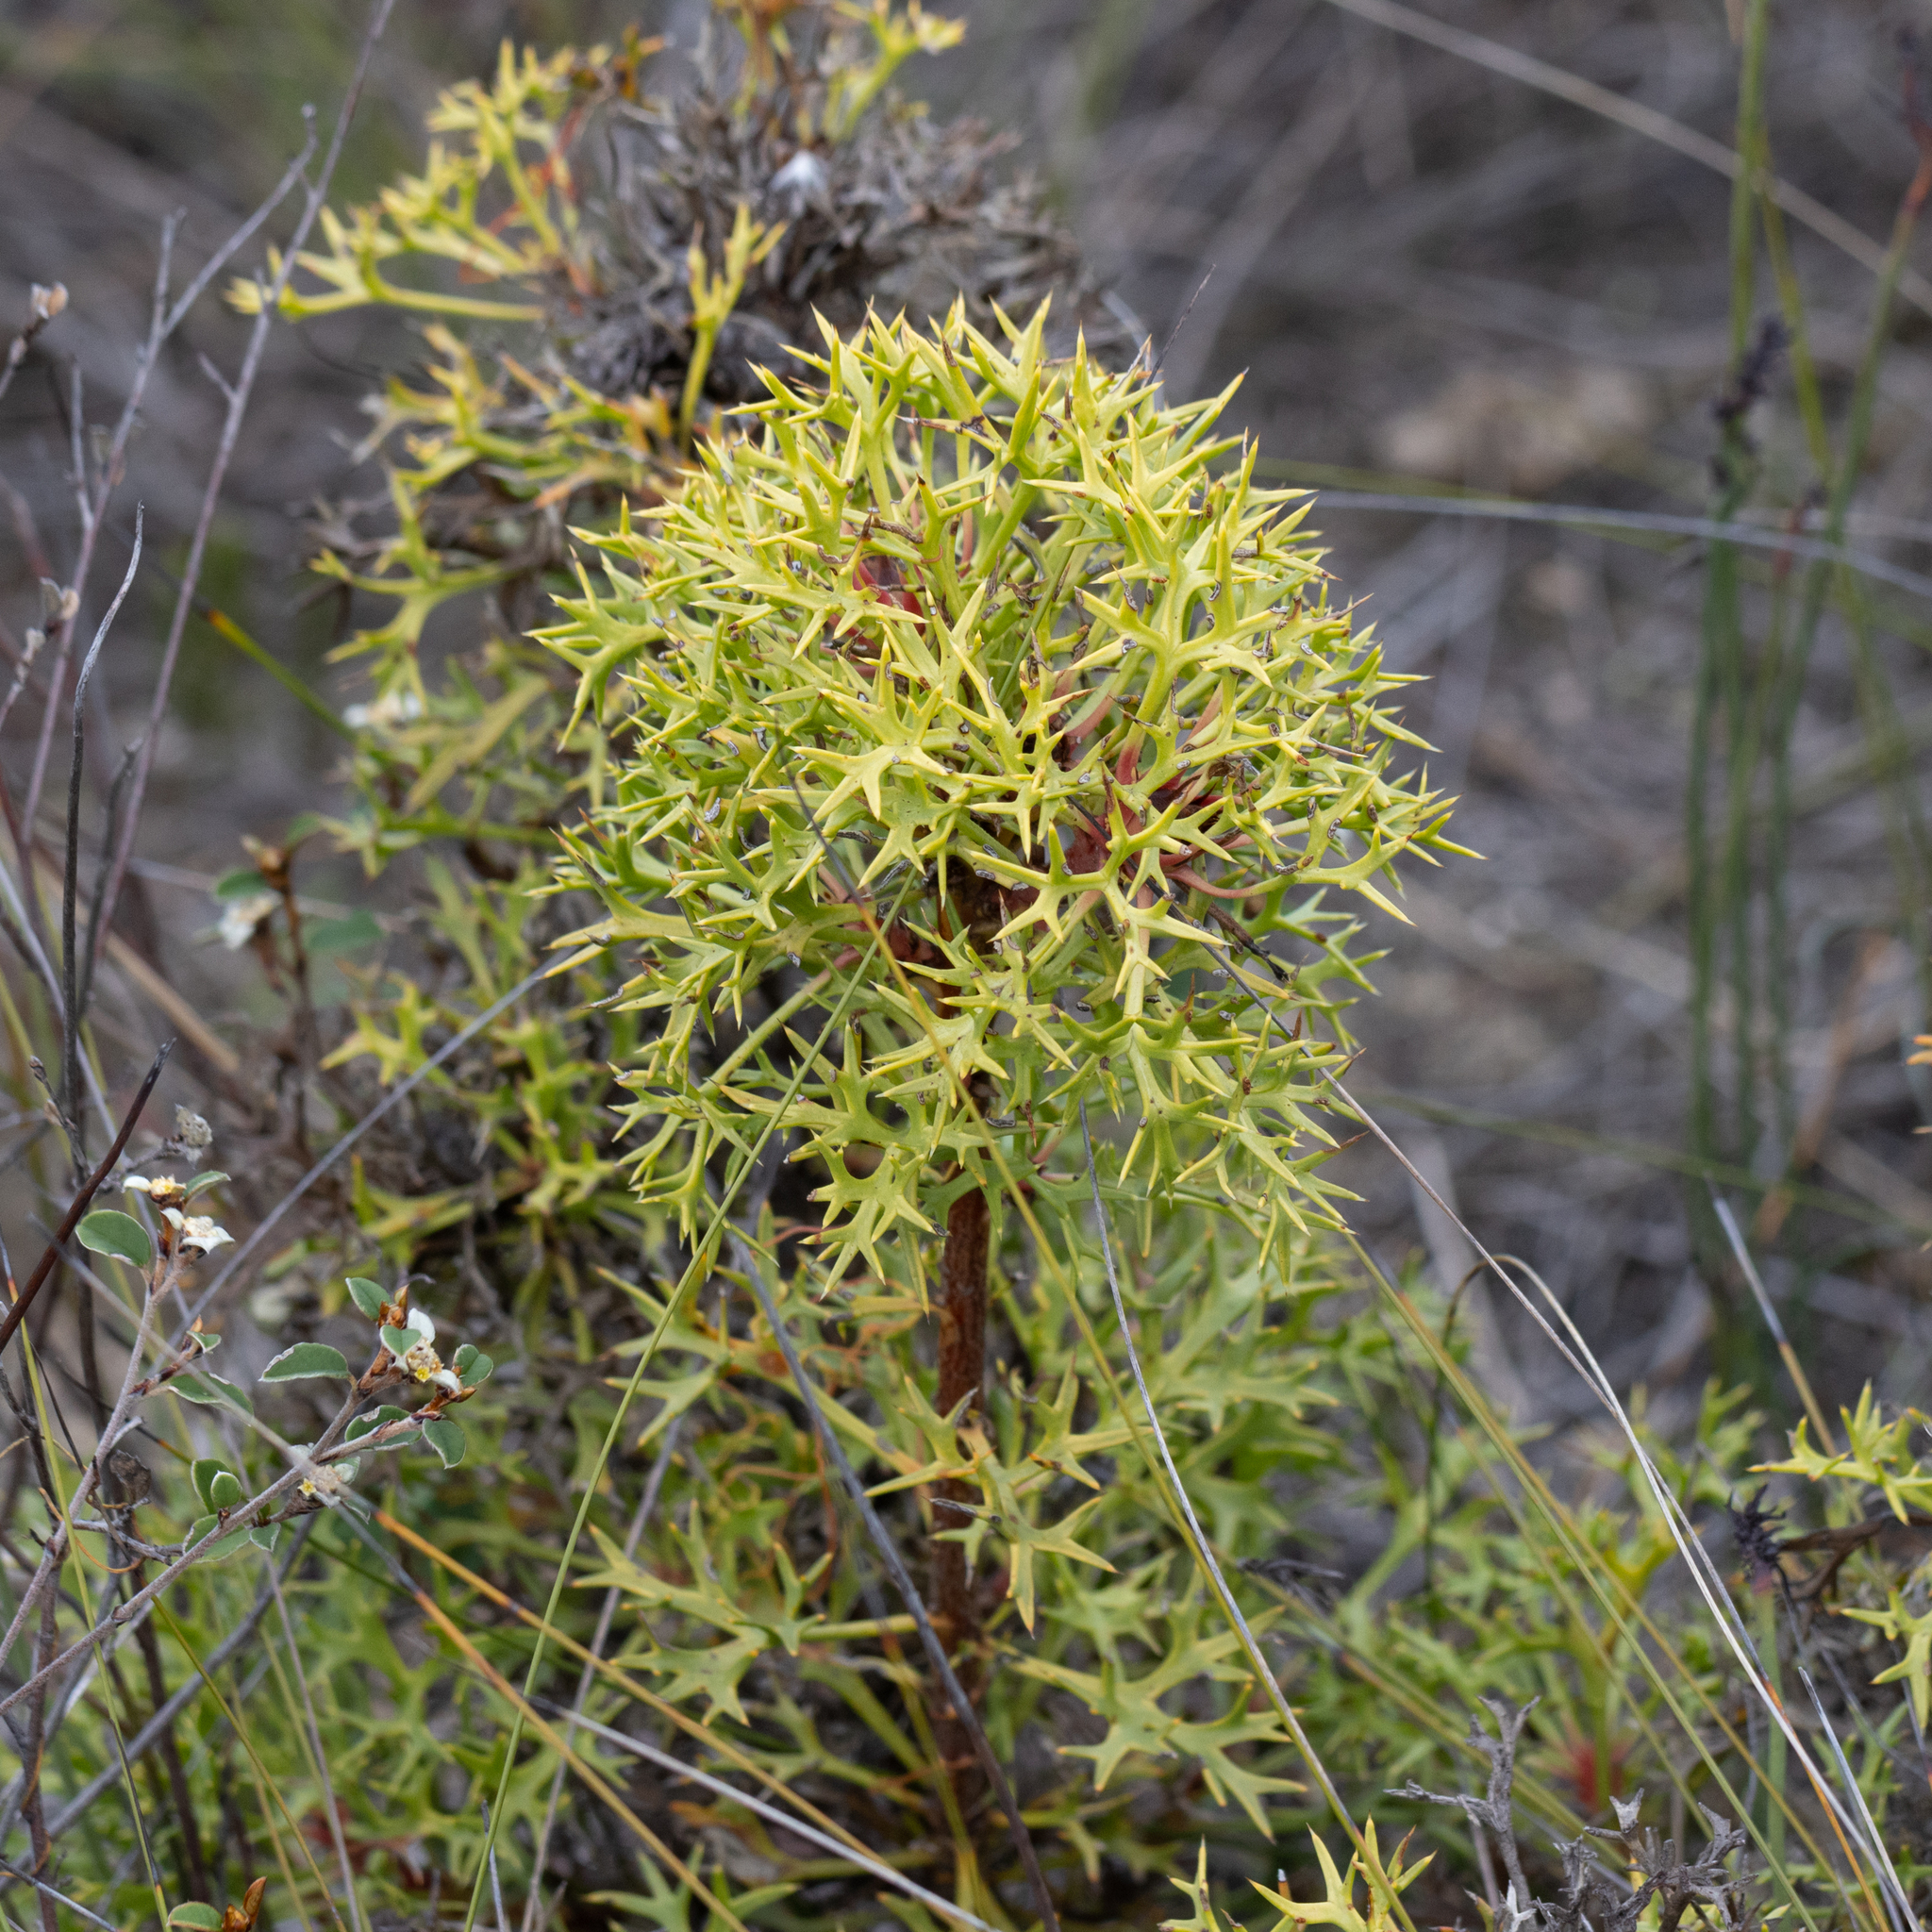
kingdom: Plantae
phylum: Tracheophyta
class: Magnoliopsida
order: Proteales
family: Proteaceae
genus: Isopogon
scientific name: Isopogon ceratophyllus
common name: Horny cone-bush
